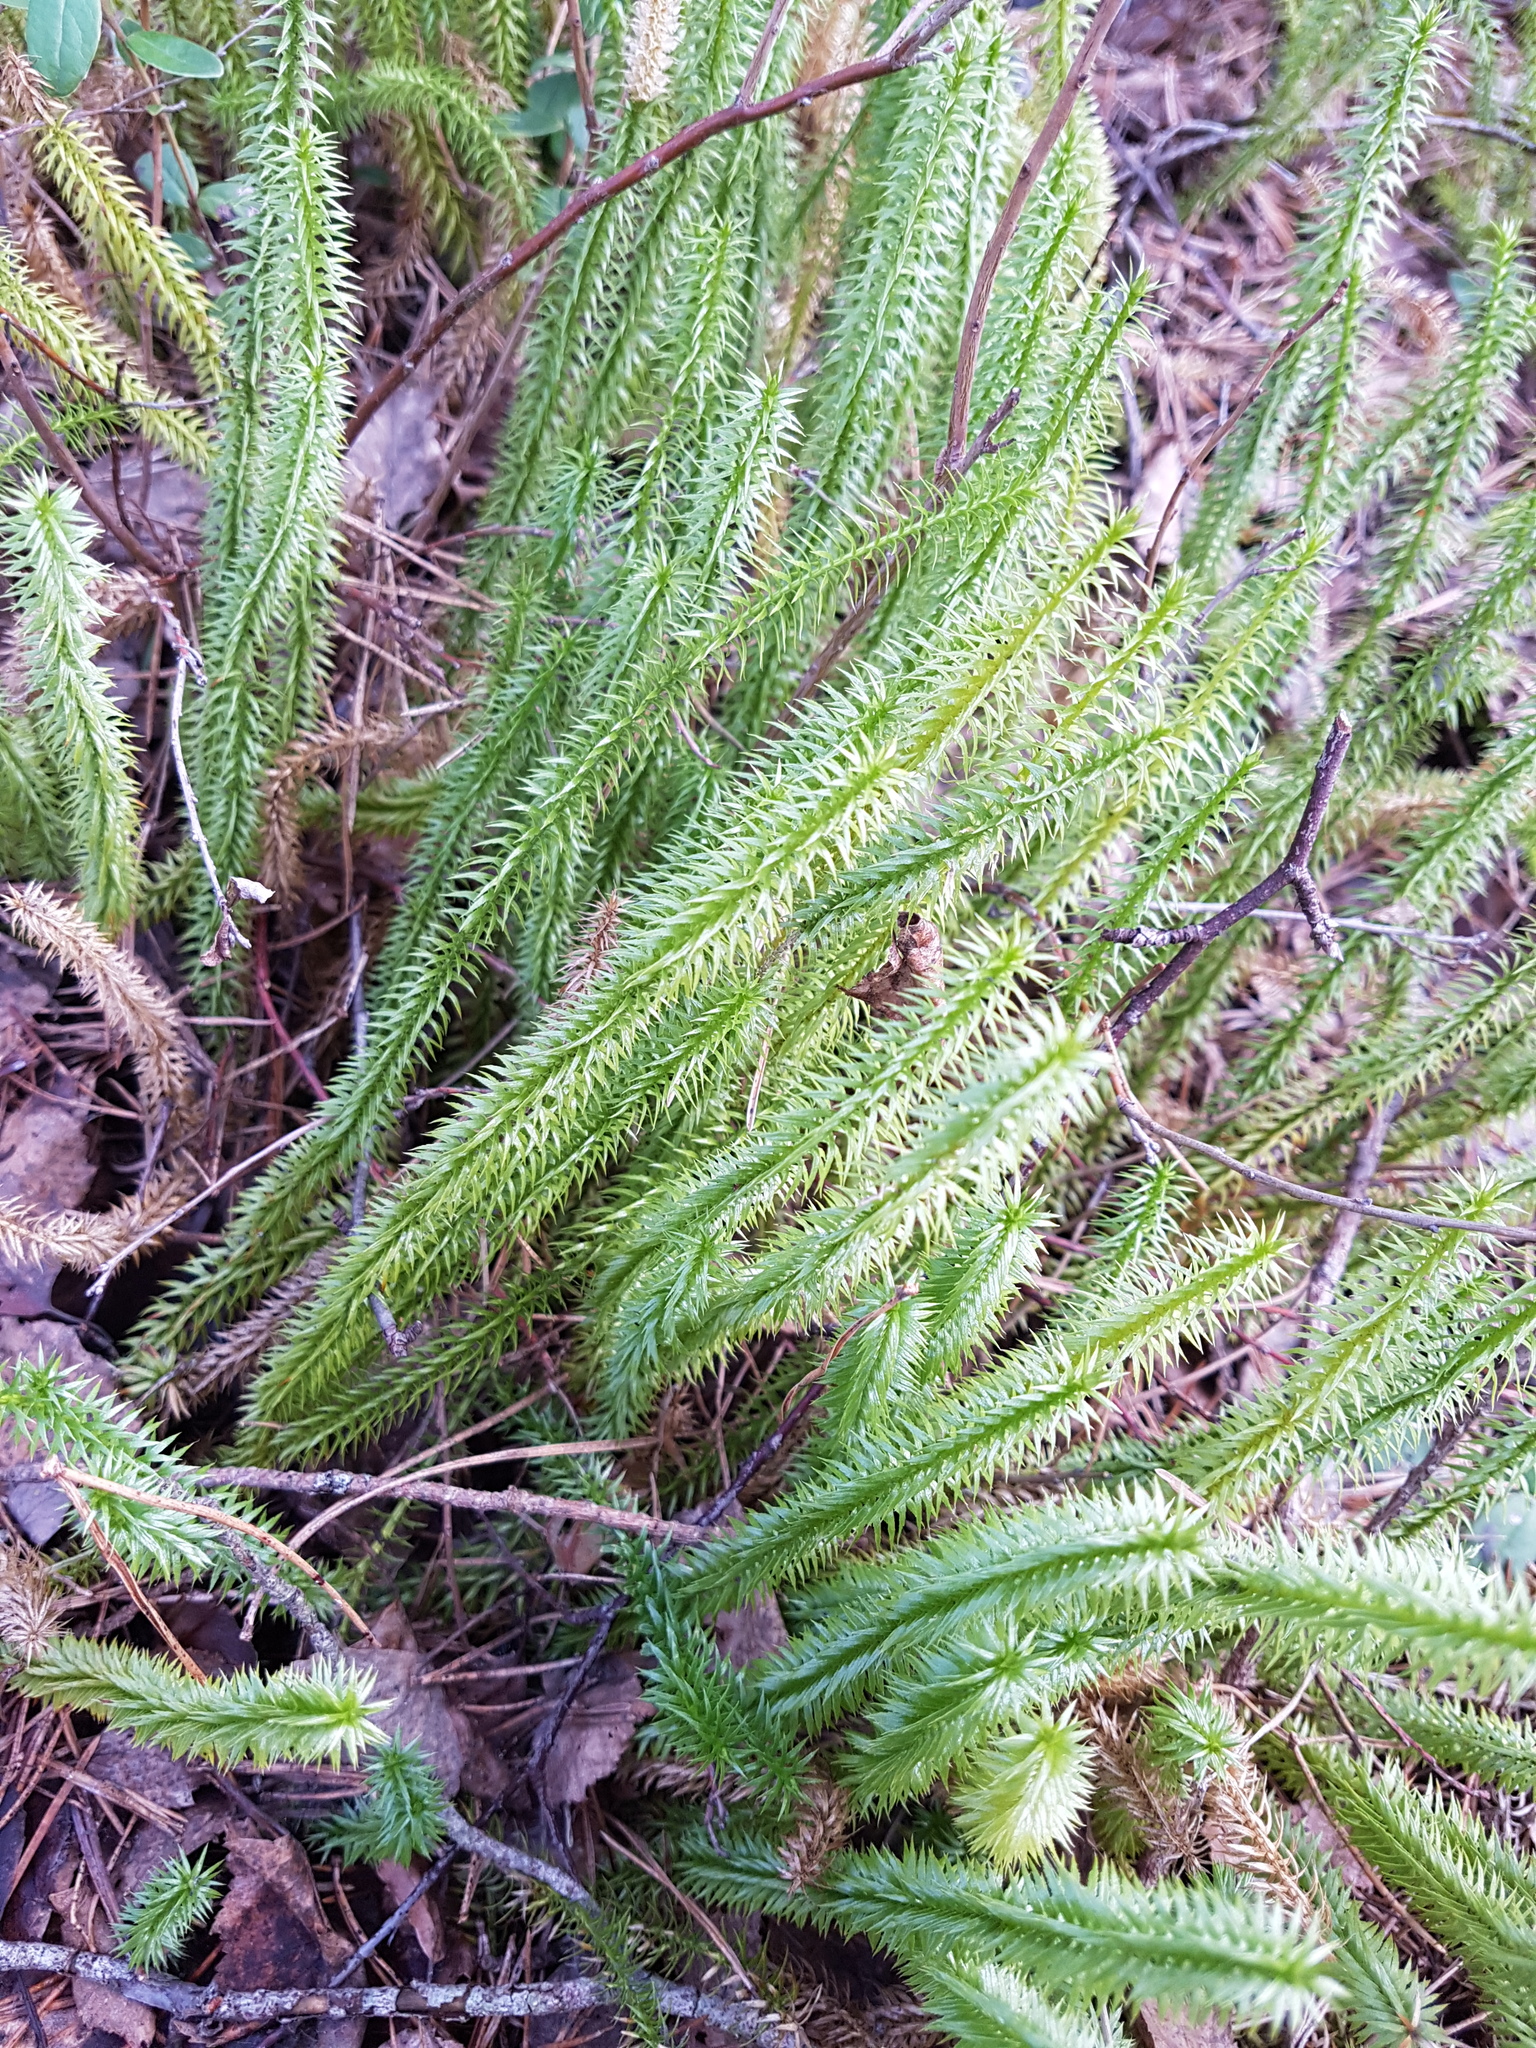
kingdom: Plantae
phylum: Tracheophyta
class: Lycopodiopsida
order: Lycopodiales
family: Lycopodiaceae
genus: Spinulum
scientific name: Spinulum annotinum
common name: Interrupted club-moss
